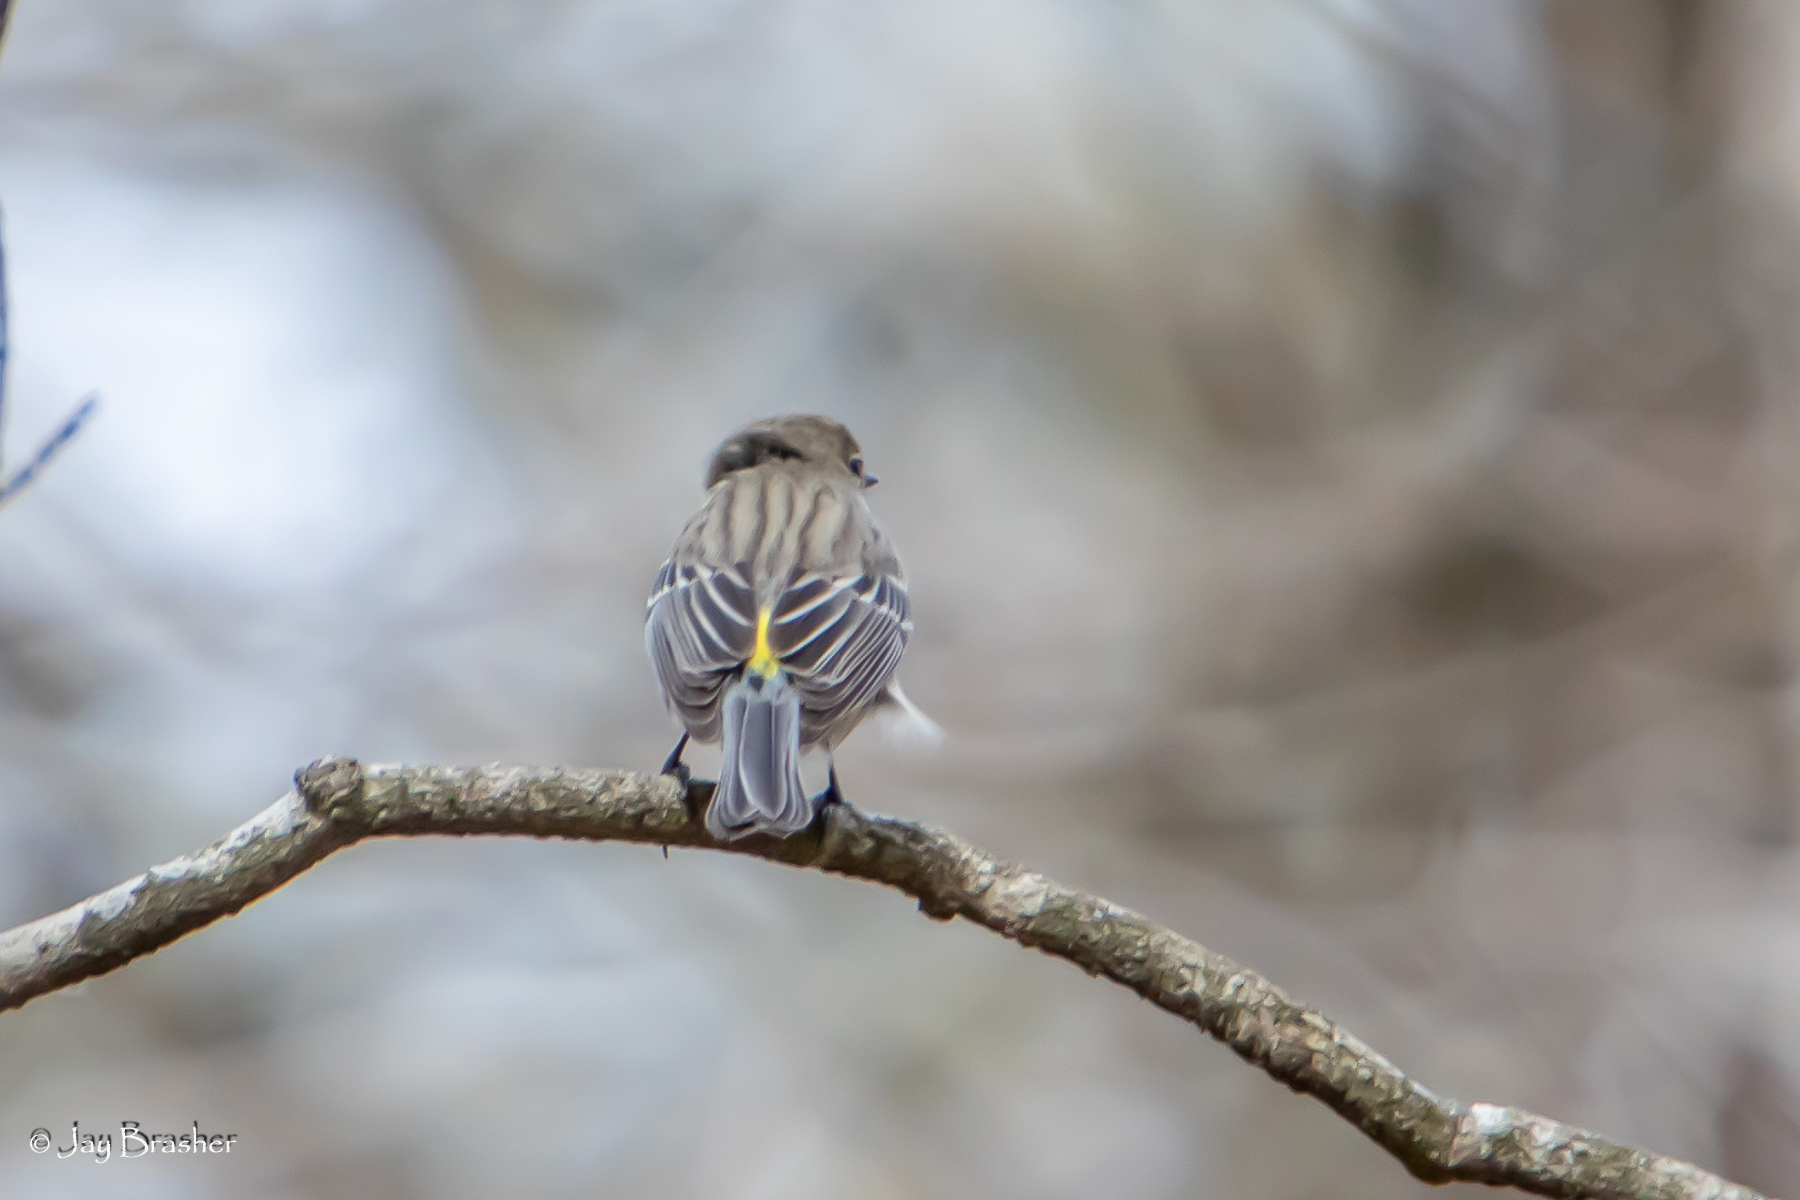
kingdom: Animalia
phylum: Chordata
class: Aves
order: Passeriformes
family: Parulidae
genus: Setophaga
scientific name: Setophaga coronata
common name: Myrtle warbler
